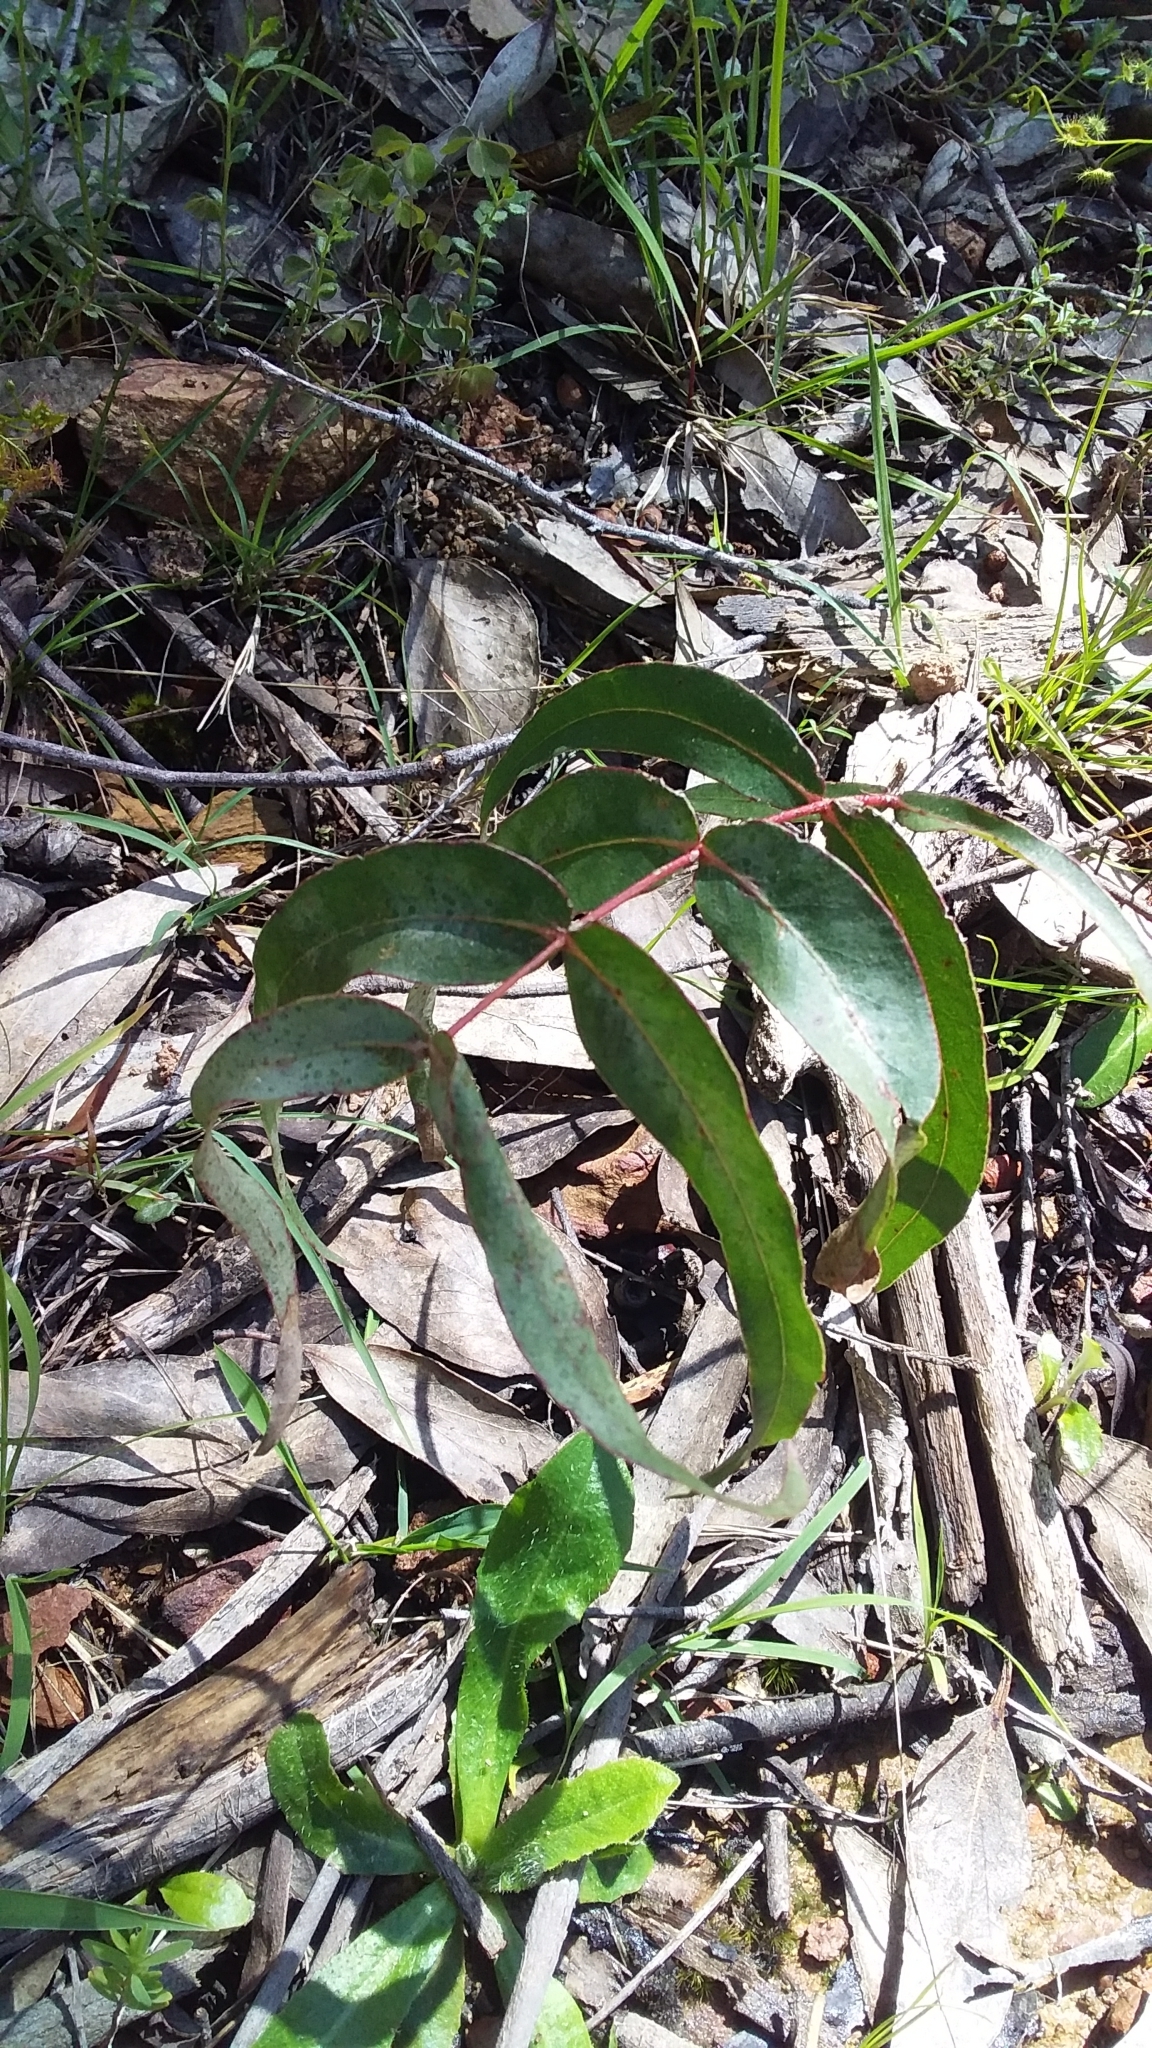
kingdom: Plantae
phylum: Tracheophyta
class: Magnoliopsida
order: Myrtales
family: Myrtaceae
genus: Eucalyptus
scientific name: Eucalyptus viminalis
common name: Manna gum
